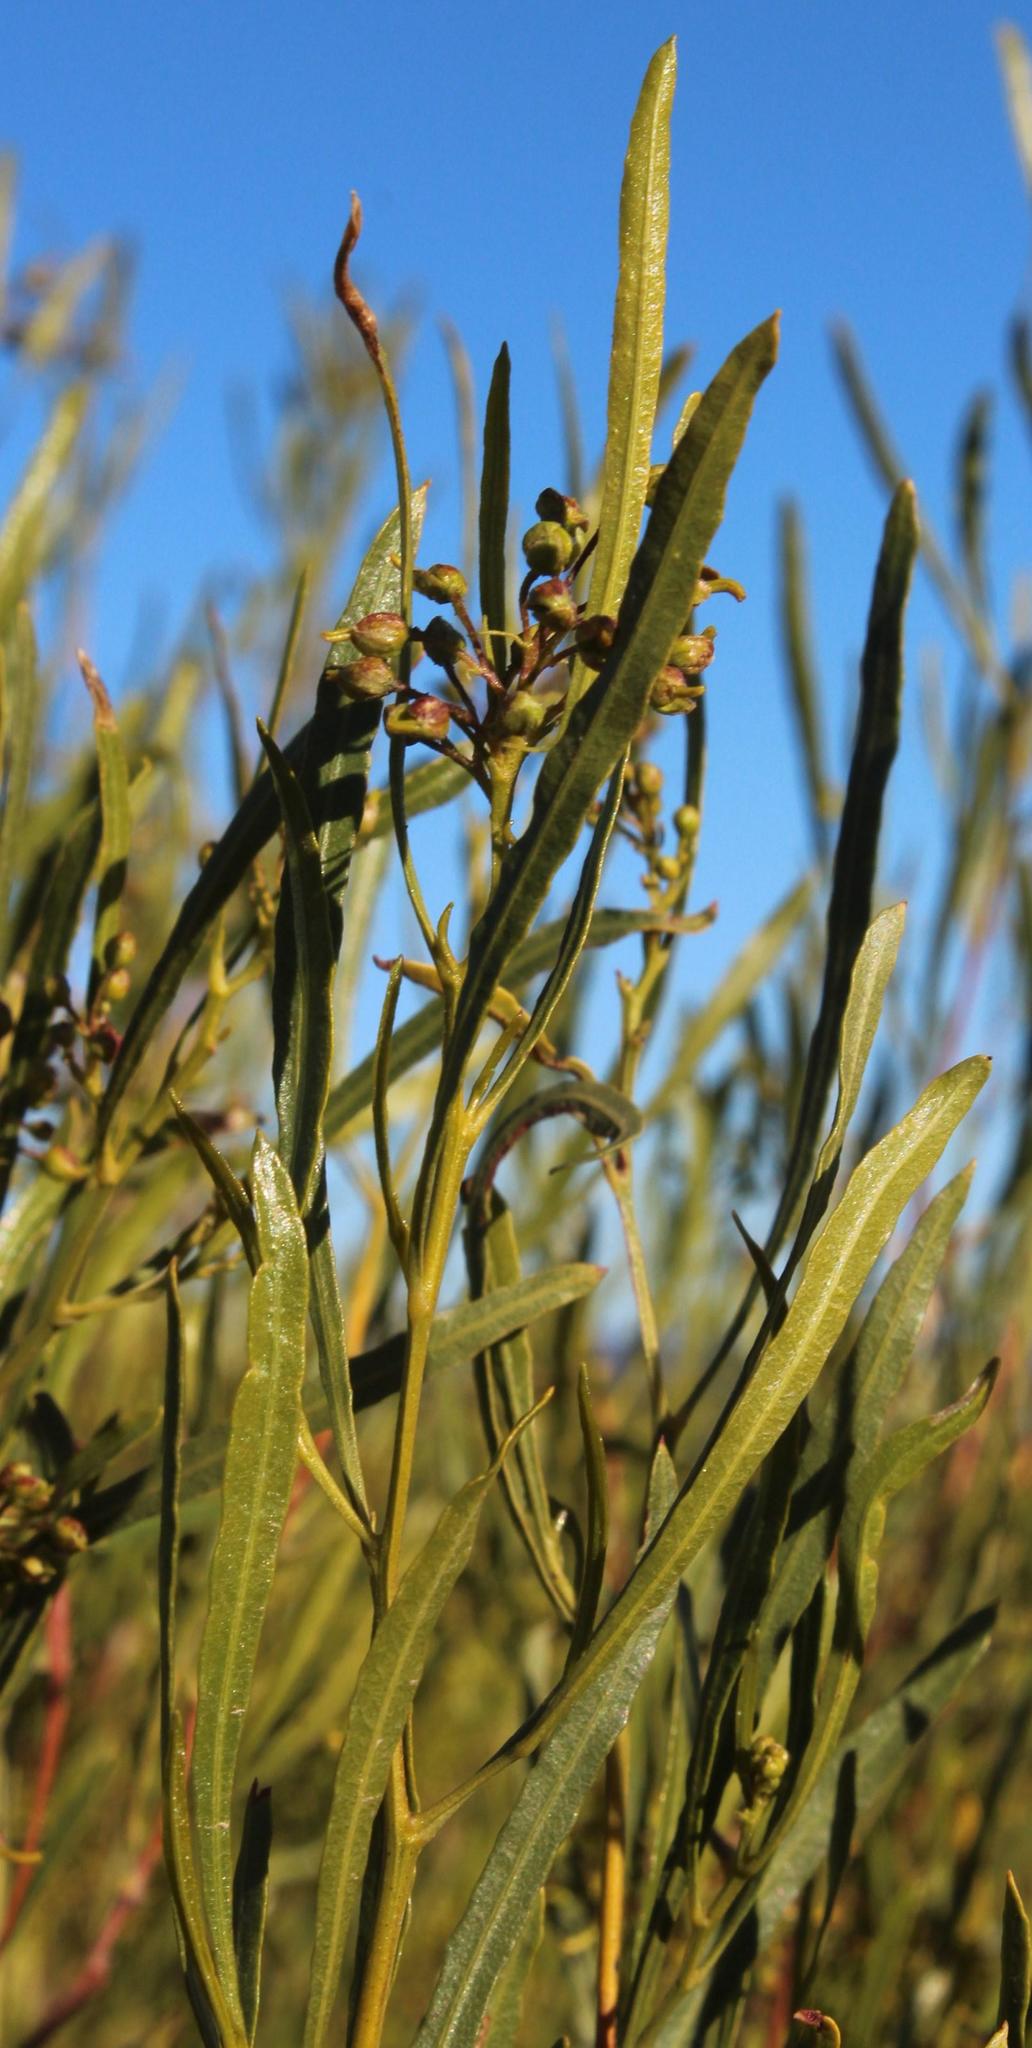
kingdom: Plantae
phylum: Tracheophyta
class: Magnoliopsida
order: Sapindales
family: Sapindaceae
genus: Dodonaea
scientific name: Dodonaea viscosa
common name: Hopbush
